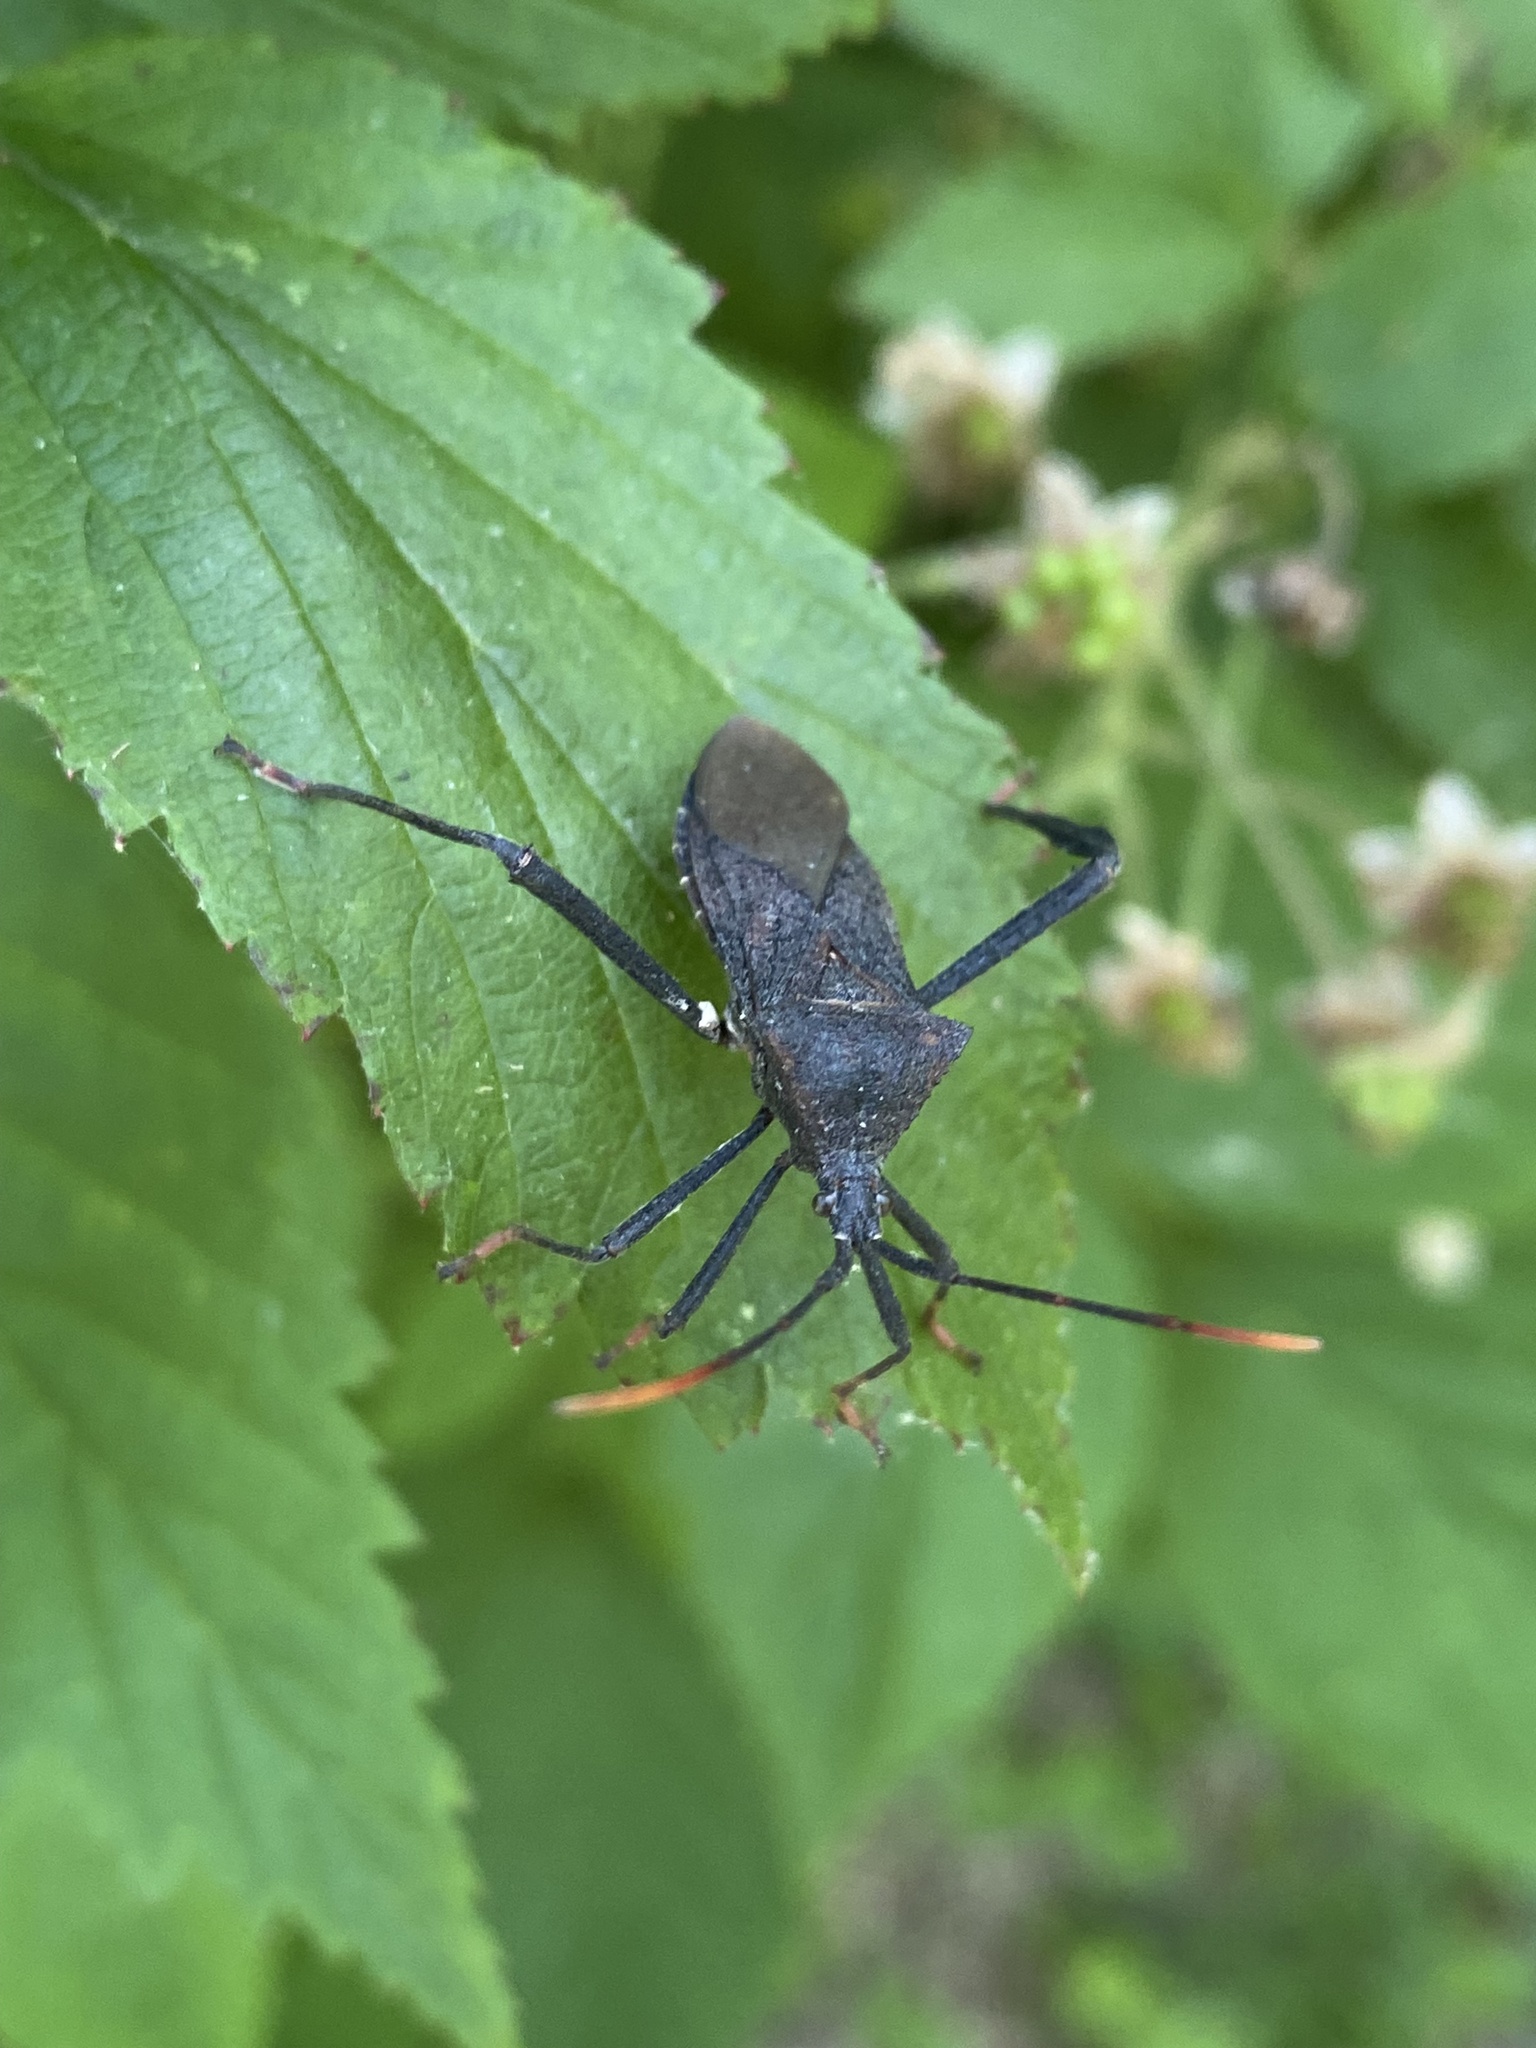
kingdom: Animalia
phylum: Arthropoda
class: Insecta
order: Hemiptera
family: Coreidae
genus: Acanthocephala
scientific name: Acanthocephala terminalis
